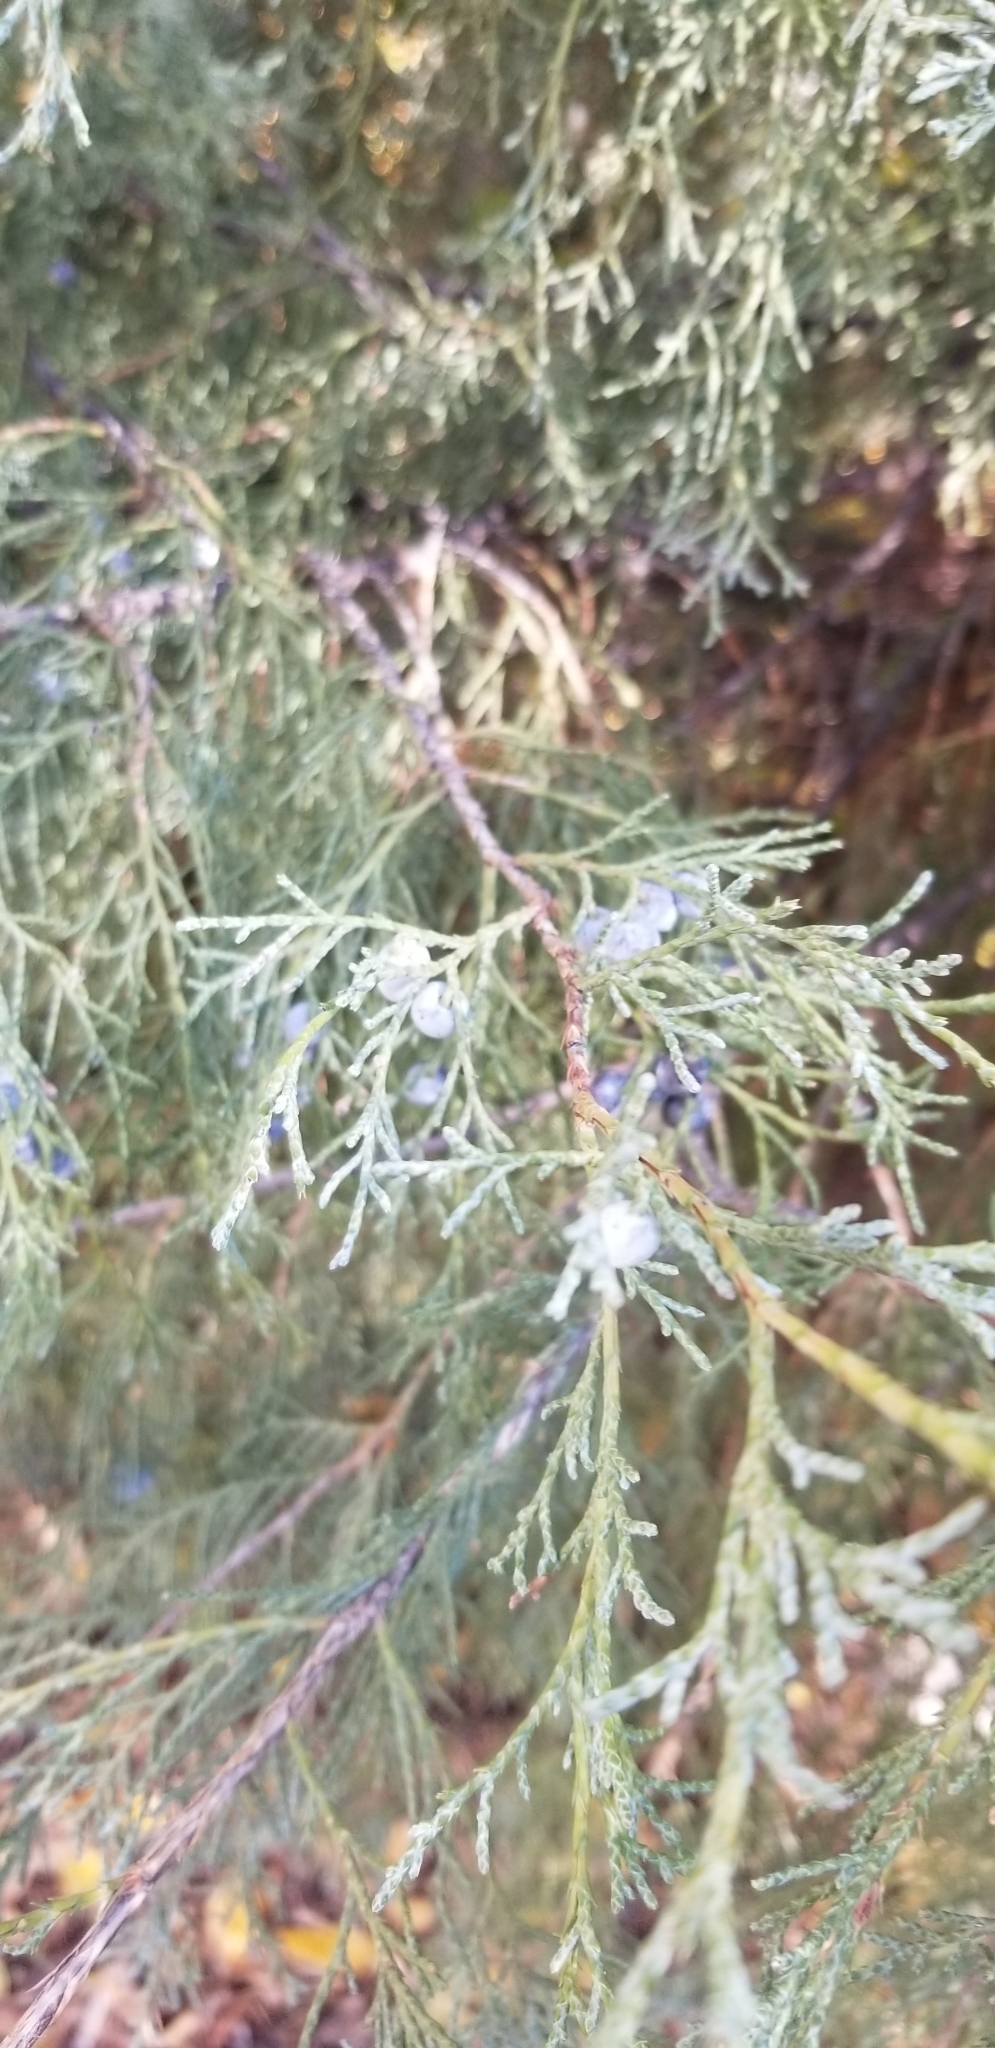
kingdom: Plantae
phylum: Tracheophyta
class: Pinopsida
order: Pinales
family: Cupressaceae
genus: Juniperus
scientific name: Juniperus scopulorum
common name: Rocky mountain juniper
